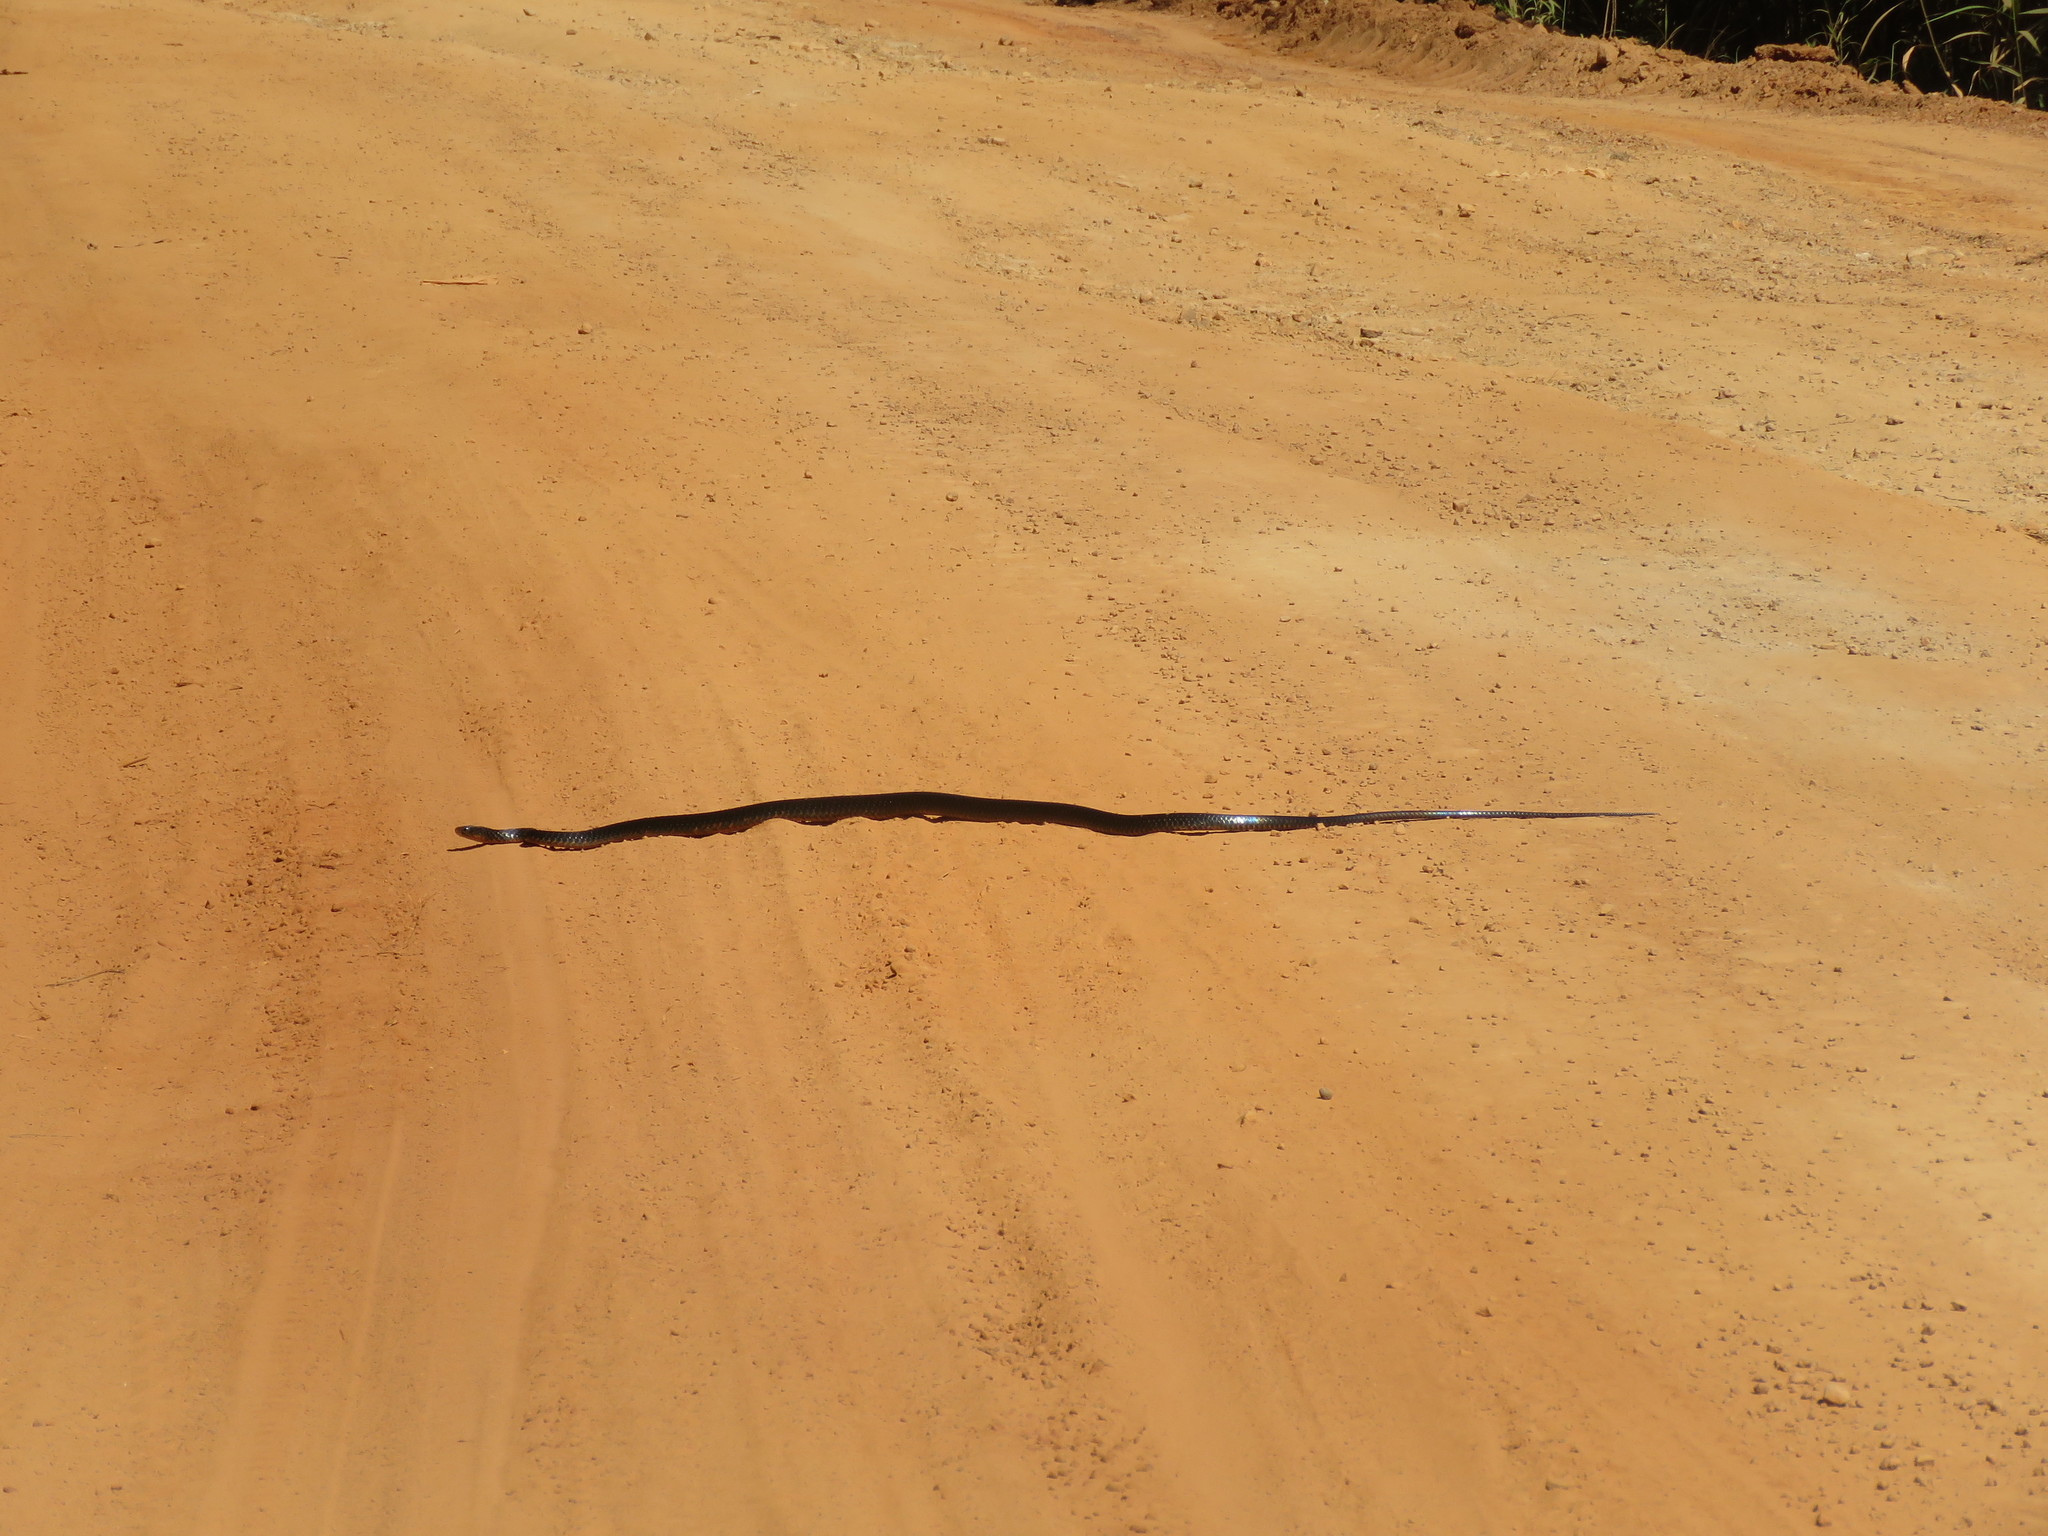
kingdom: Animalia
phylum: Chordata
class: Squamata
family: Colubridae
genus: Chironius
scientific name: Chironius scurrulus
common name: Wagler's sipo
